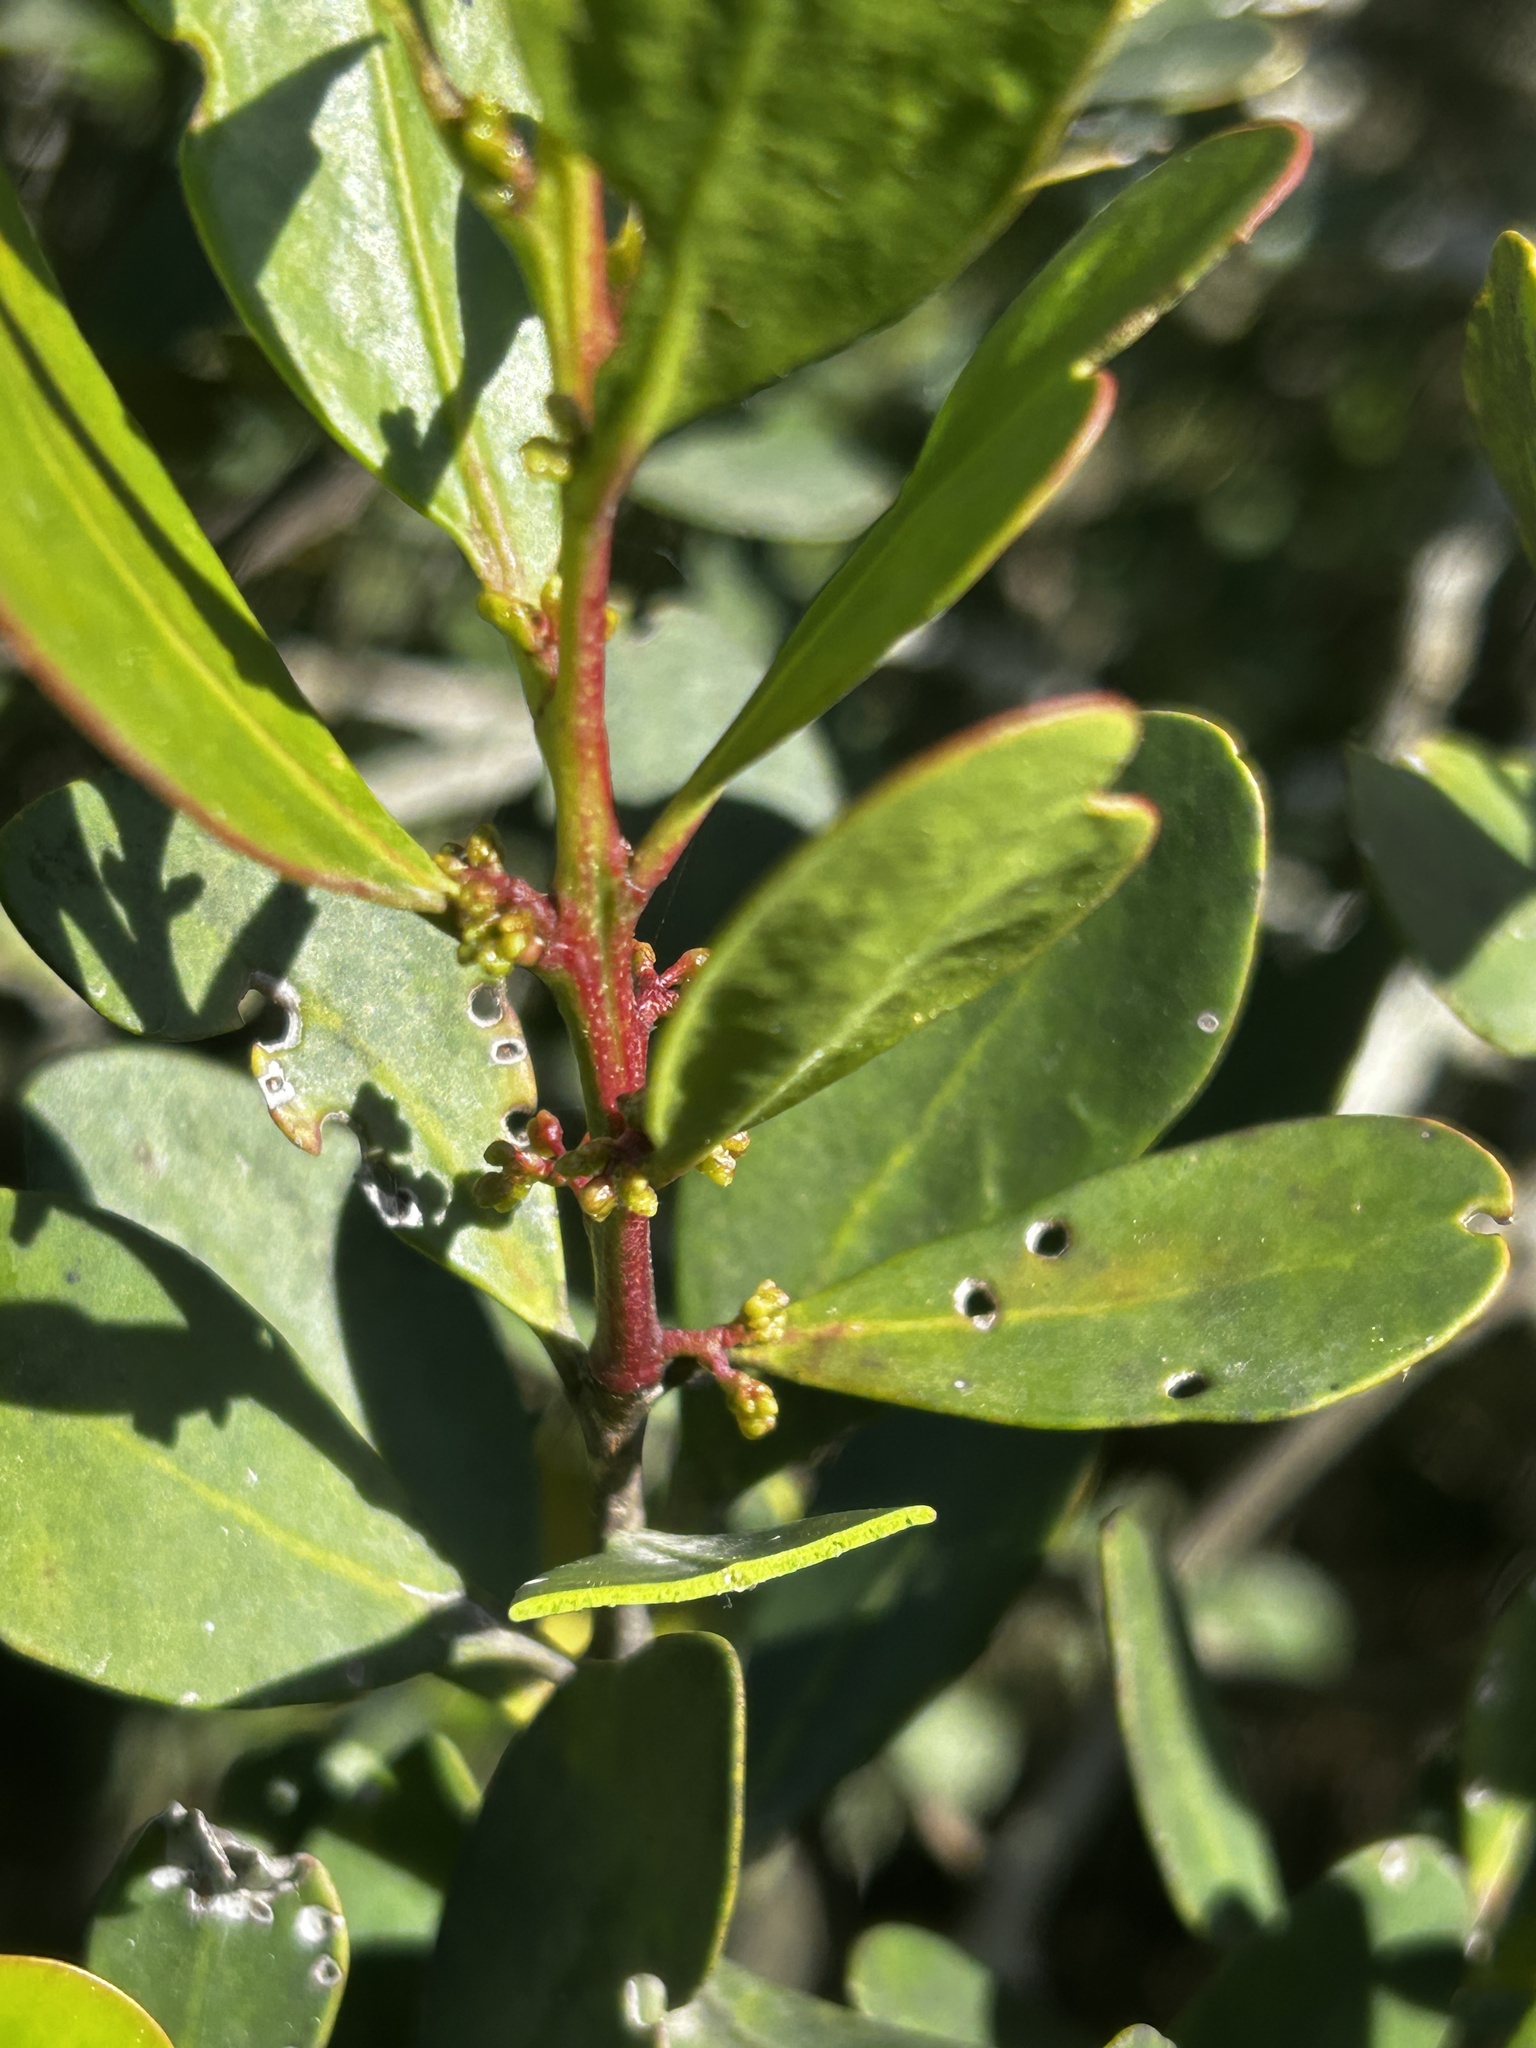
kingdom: Plantae
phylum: Tracheophyta
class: Magnoliopsida
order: Ericales
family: Ebenaceae
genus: Euclea
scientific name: Euclea racemosa
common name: Dune guarri
